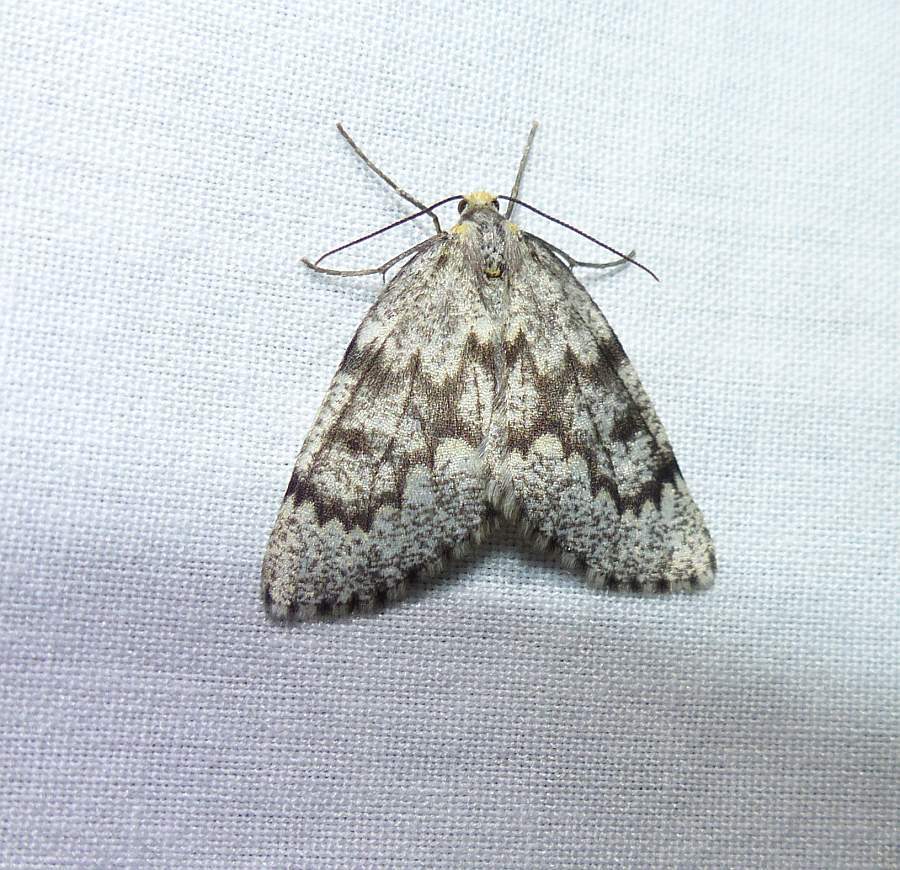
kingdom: Animalia
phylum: Arthropoda
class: Insecta
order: Lepidoptera
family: Geometridae
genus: Nepytia
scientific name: Nepytia canosaria
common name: False hemlock looper
